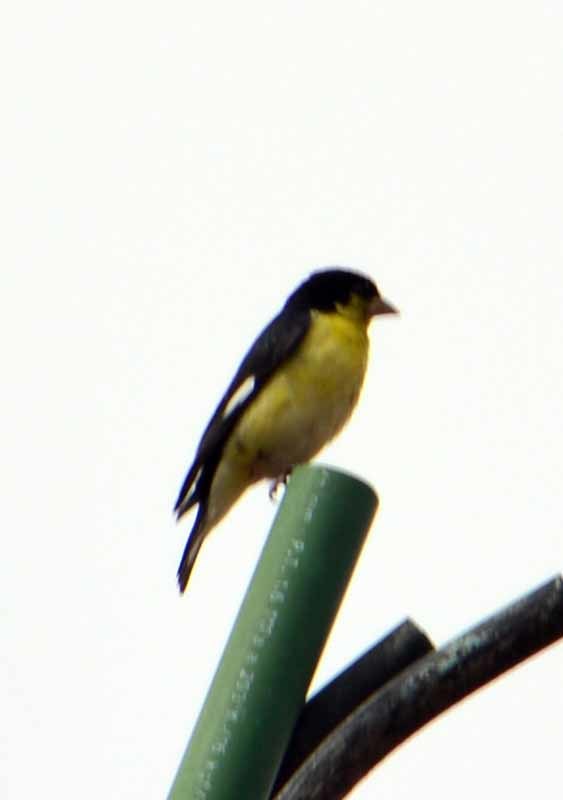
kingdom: Animalia
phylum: Chordata
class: Aves
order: Passeriformes
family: Fringillidae
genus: Spinus
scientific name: Spinus psaltria
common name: Lesser goldfinch
